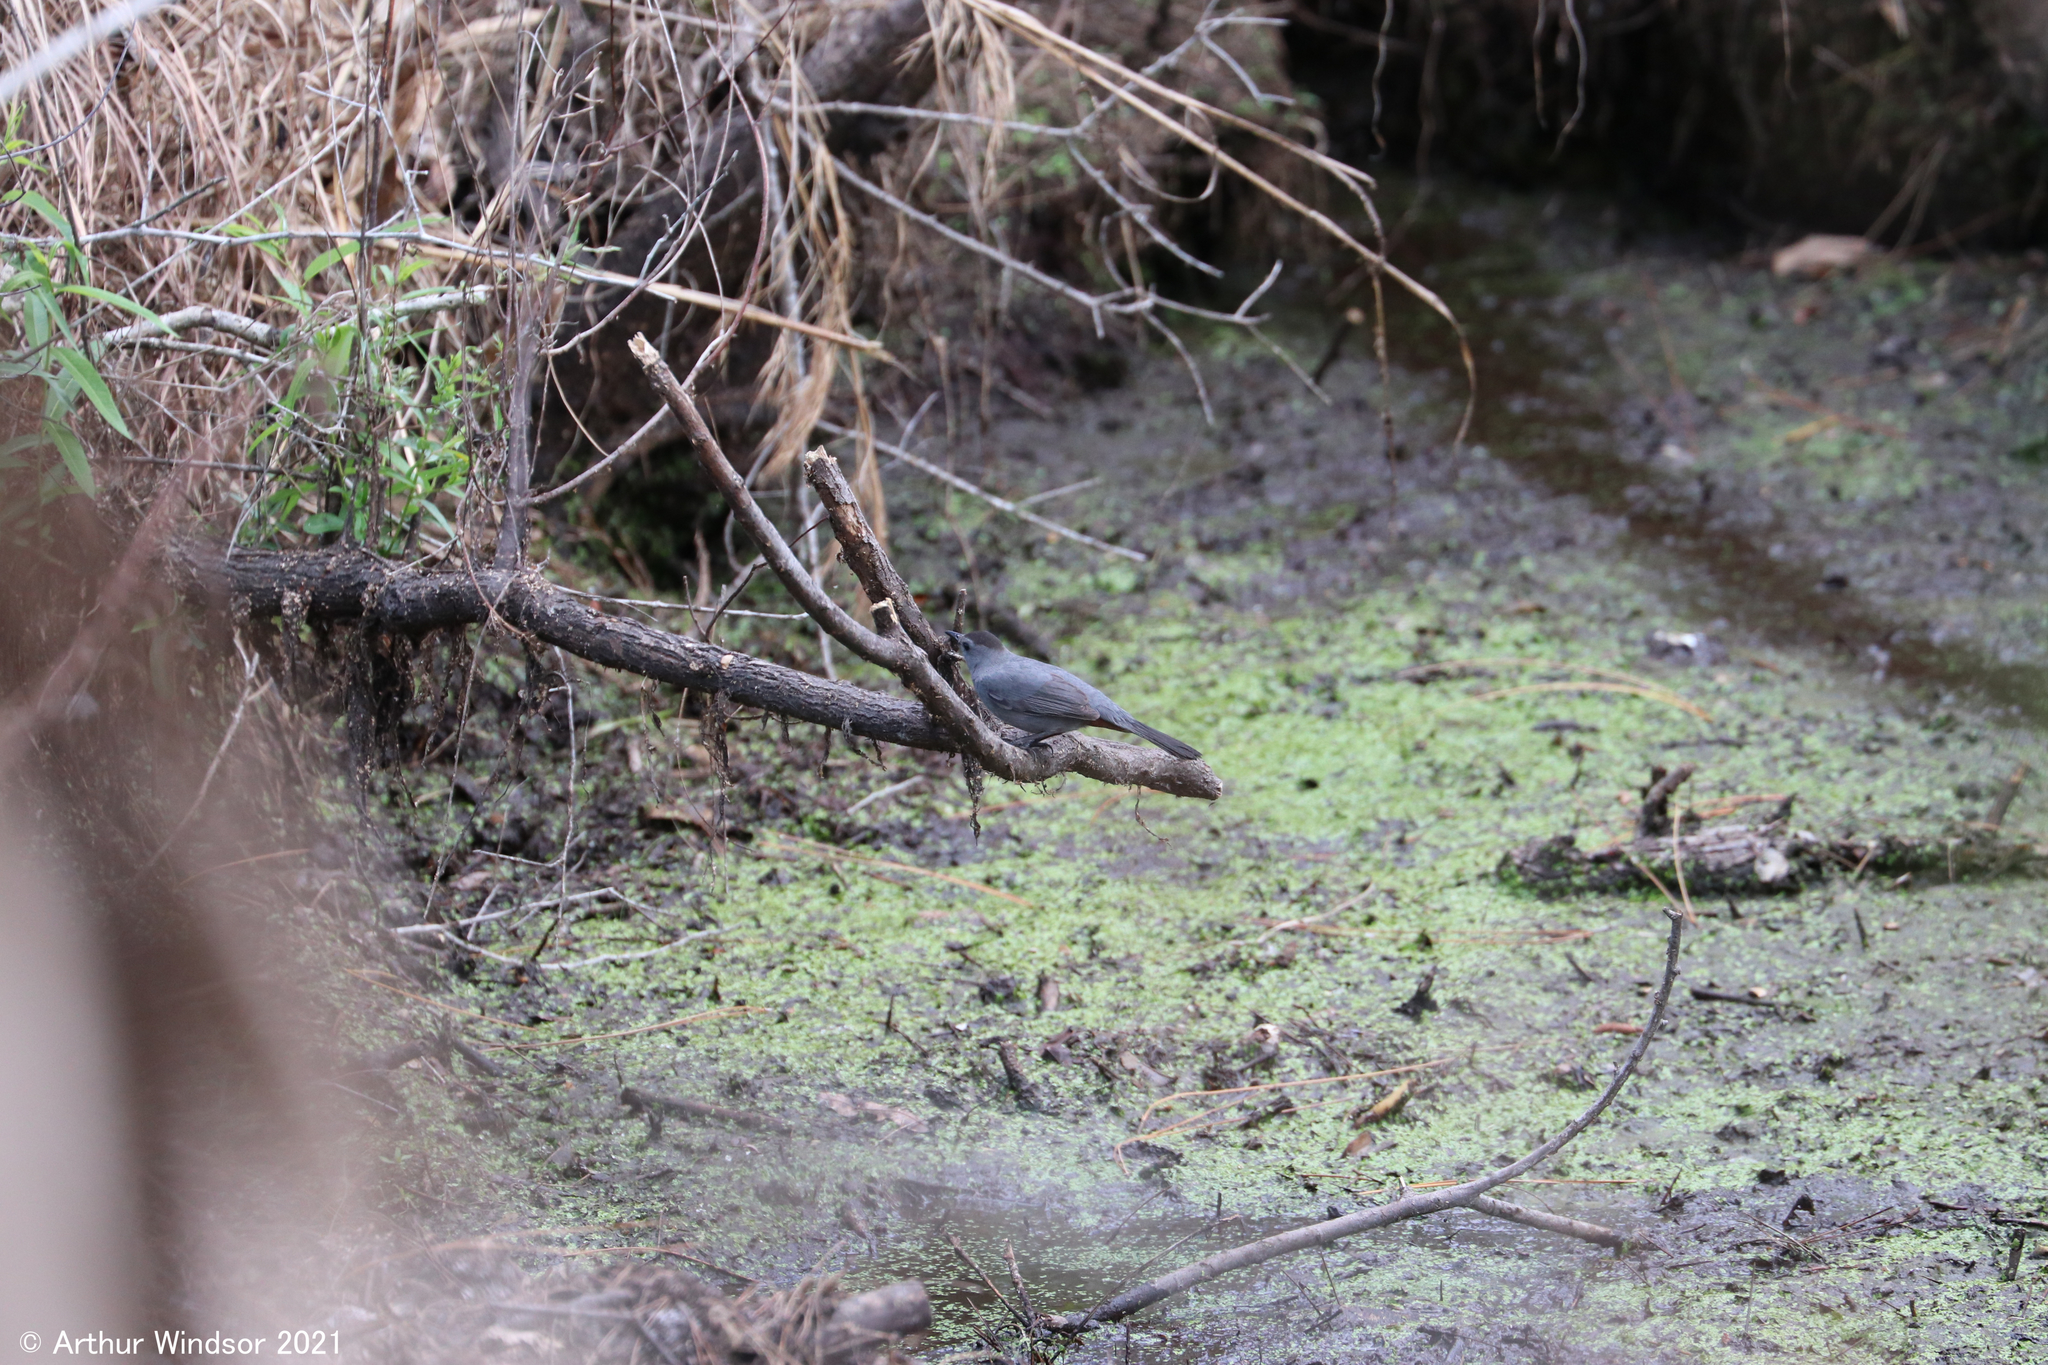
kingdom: Animalia
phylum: Chordata
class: Aves
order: Passeriformes
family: Mimidae
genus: Dumetella
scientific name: Dumetella carolinensis
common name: Gray catbird
